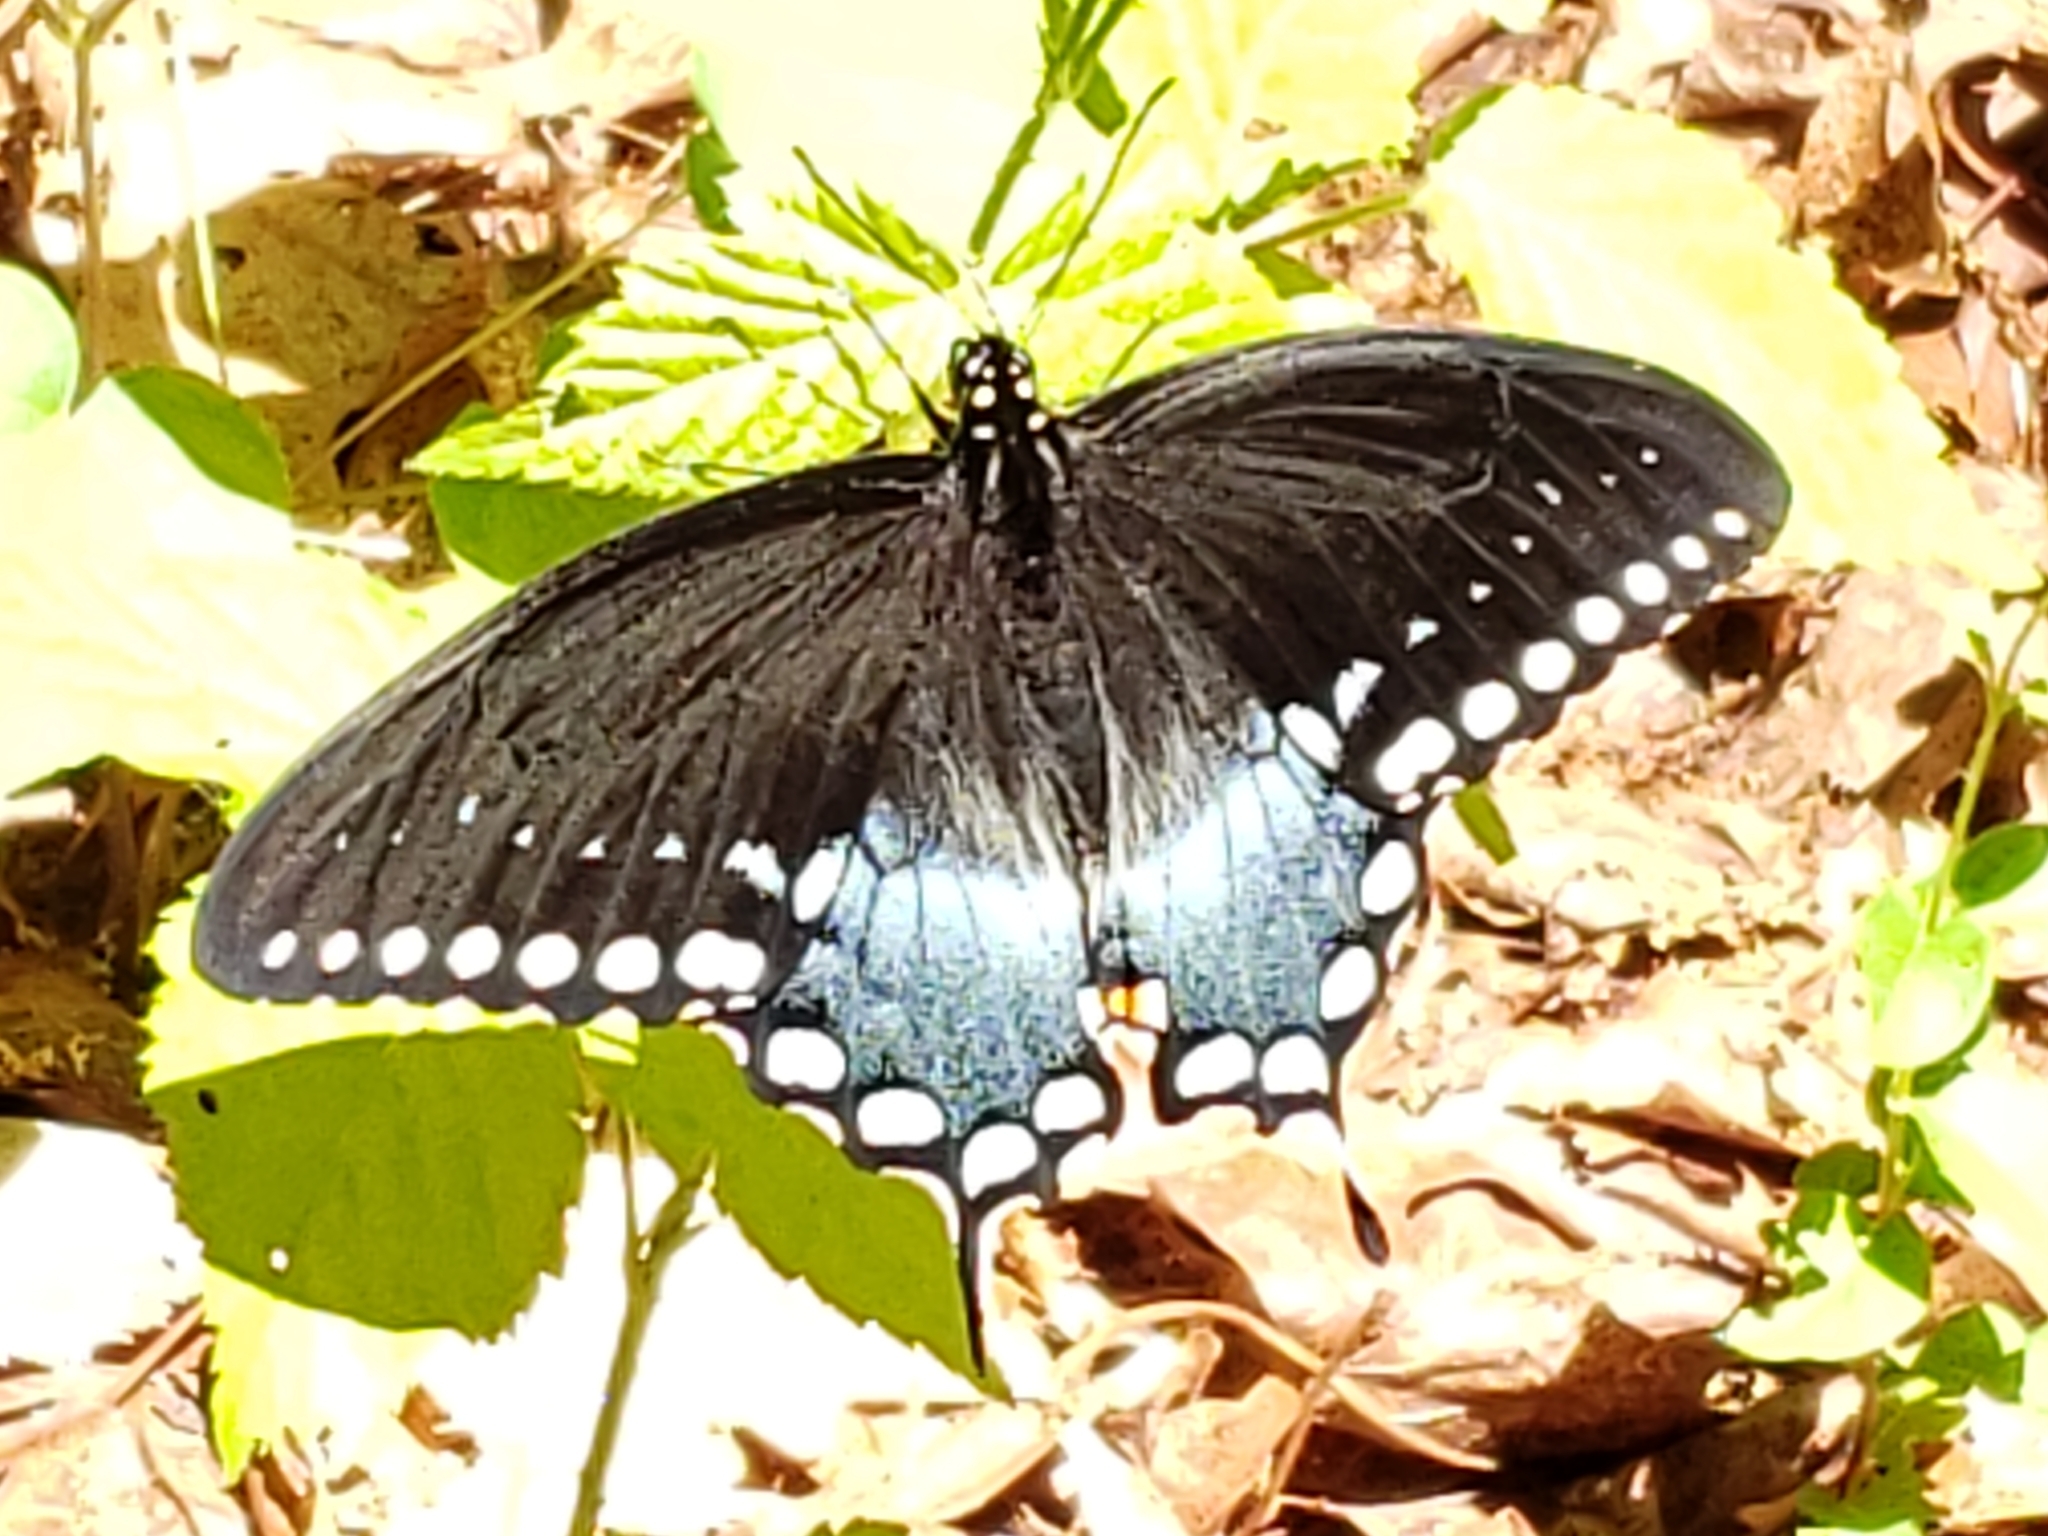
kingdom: Animalia
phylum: Arthropoda
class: Insecta
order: Lepidoptera
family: Papilionidae
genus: Papilio
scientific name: Papilio troilus
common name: Spicebush swallowtail
